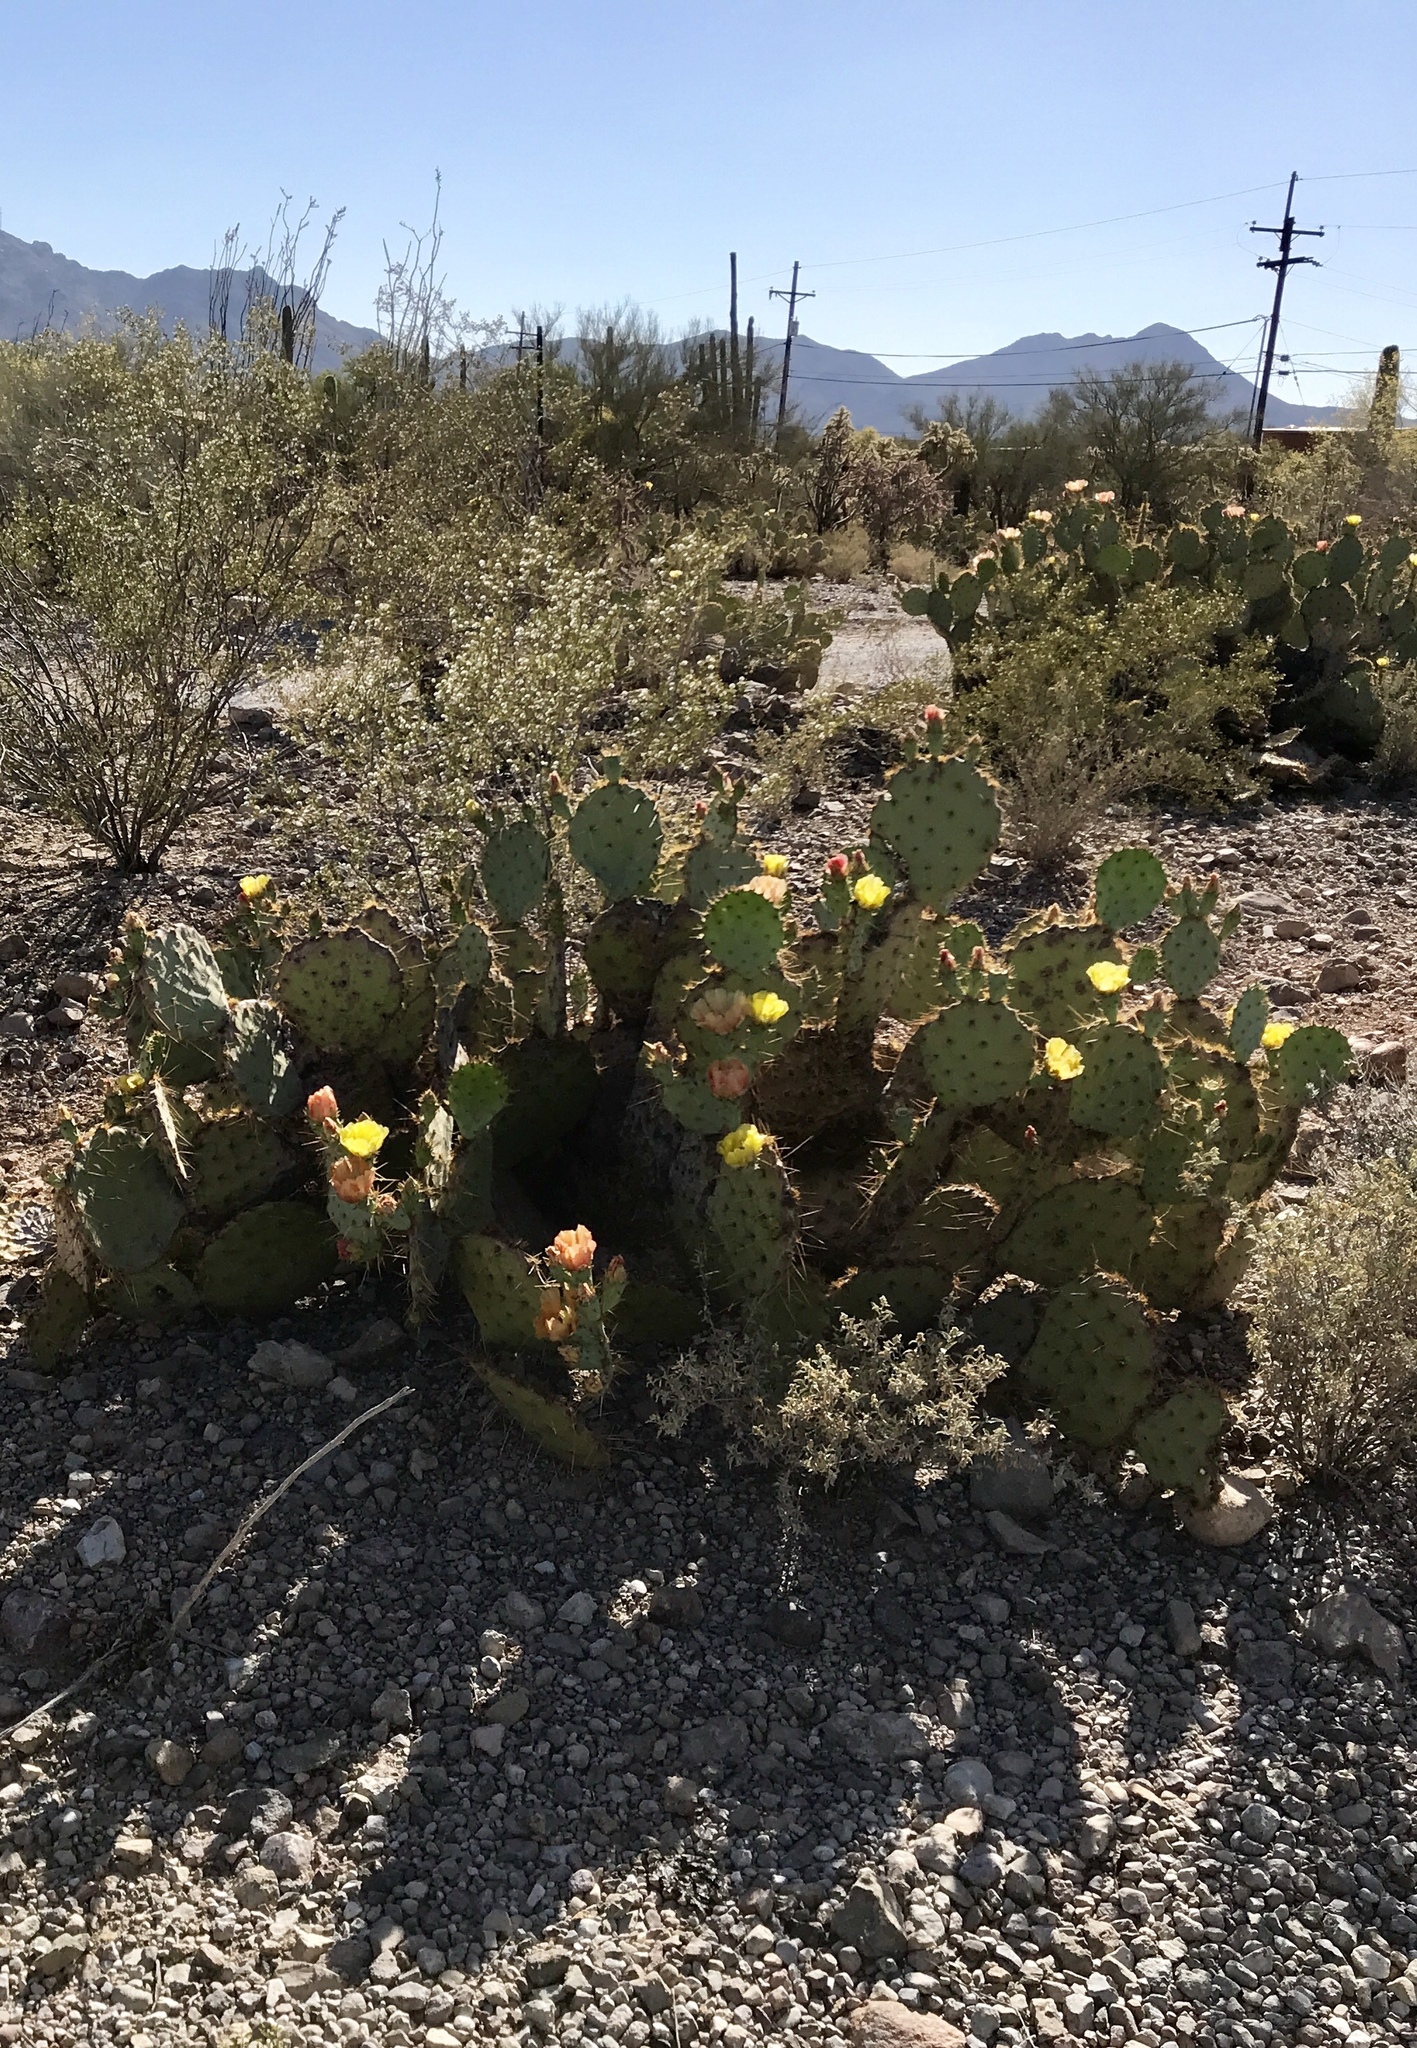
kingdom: Plantae
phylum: Tracheophyta
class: Magnoliopsida
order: Caryophyllales
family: Cactaceae
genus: Opuntia
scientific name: Opuntia engelmannii
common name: Cactus-apple
